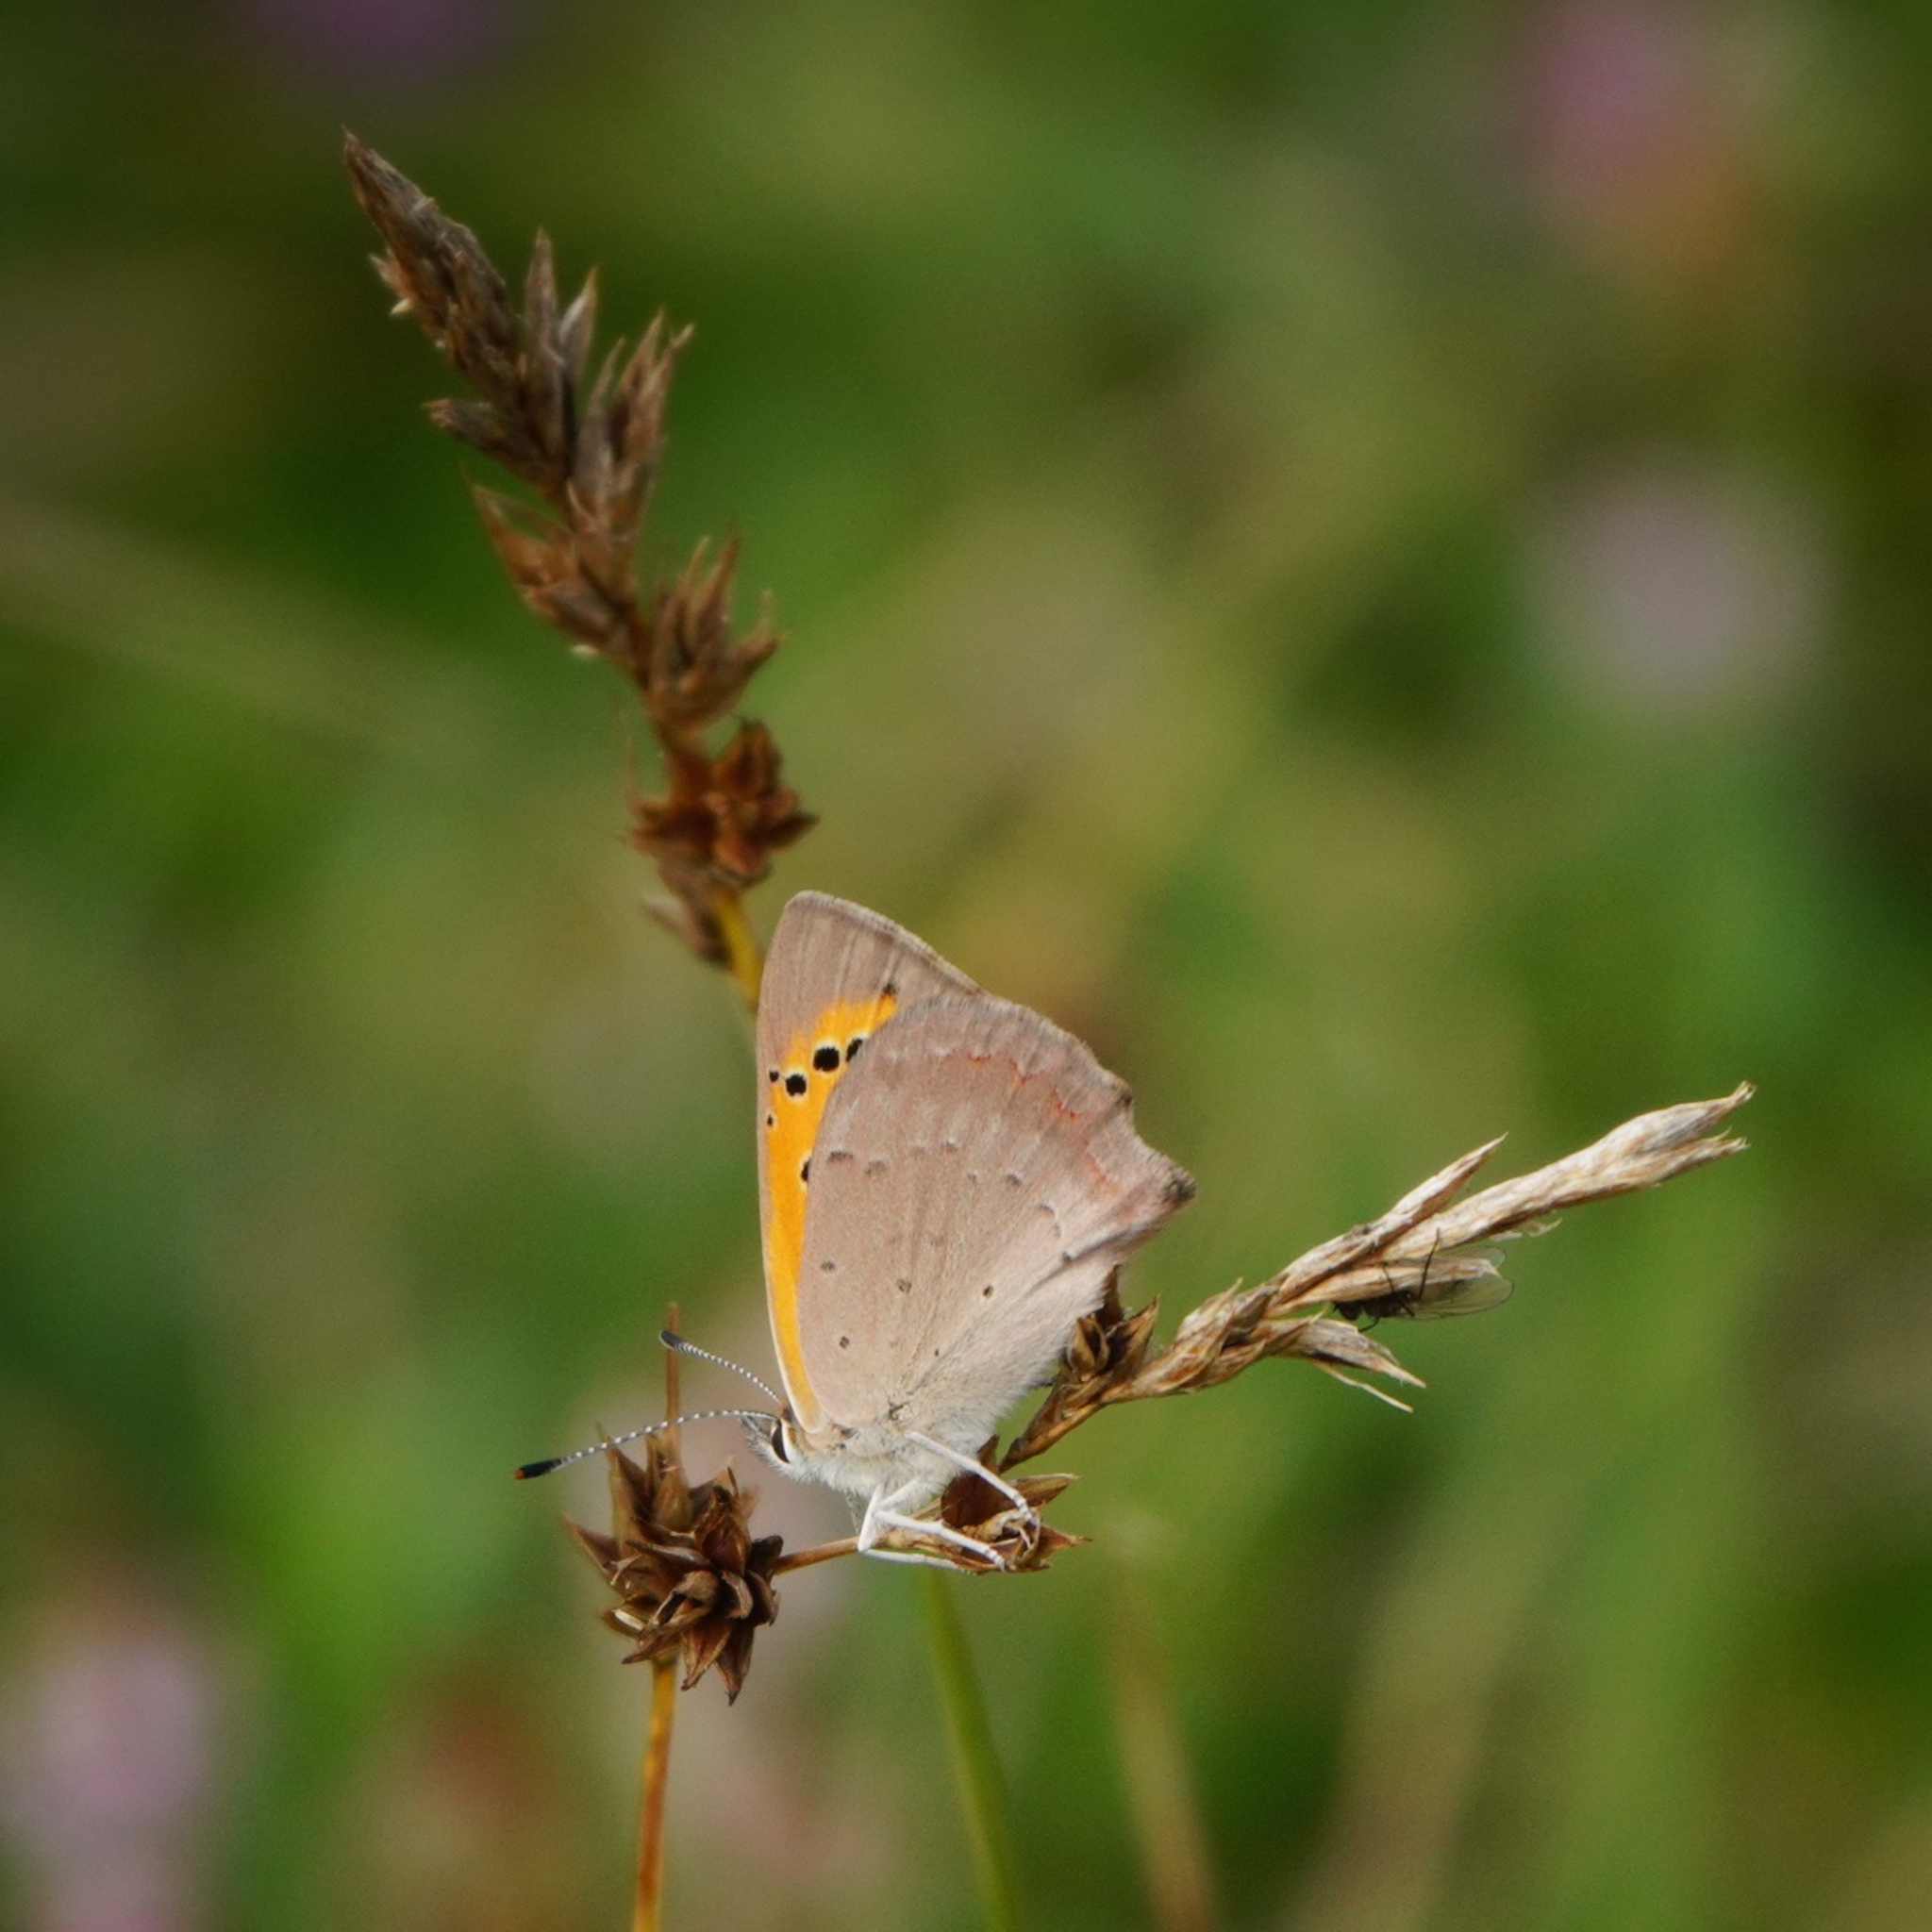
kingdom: Animalia
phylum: Arthropoda
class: Insecta
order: Lepidoptera
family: Lycaenidae
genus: Lycaena
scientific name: Lycaena phlaeas
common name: Small copper
